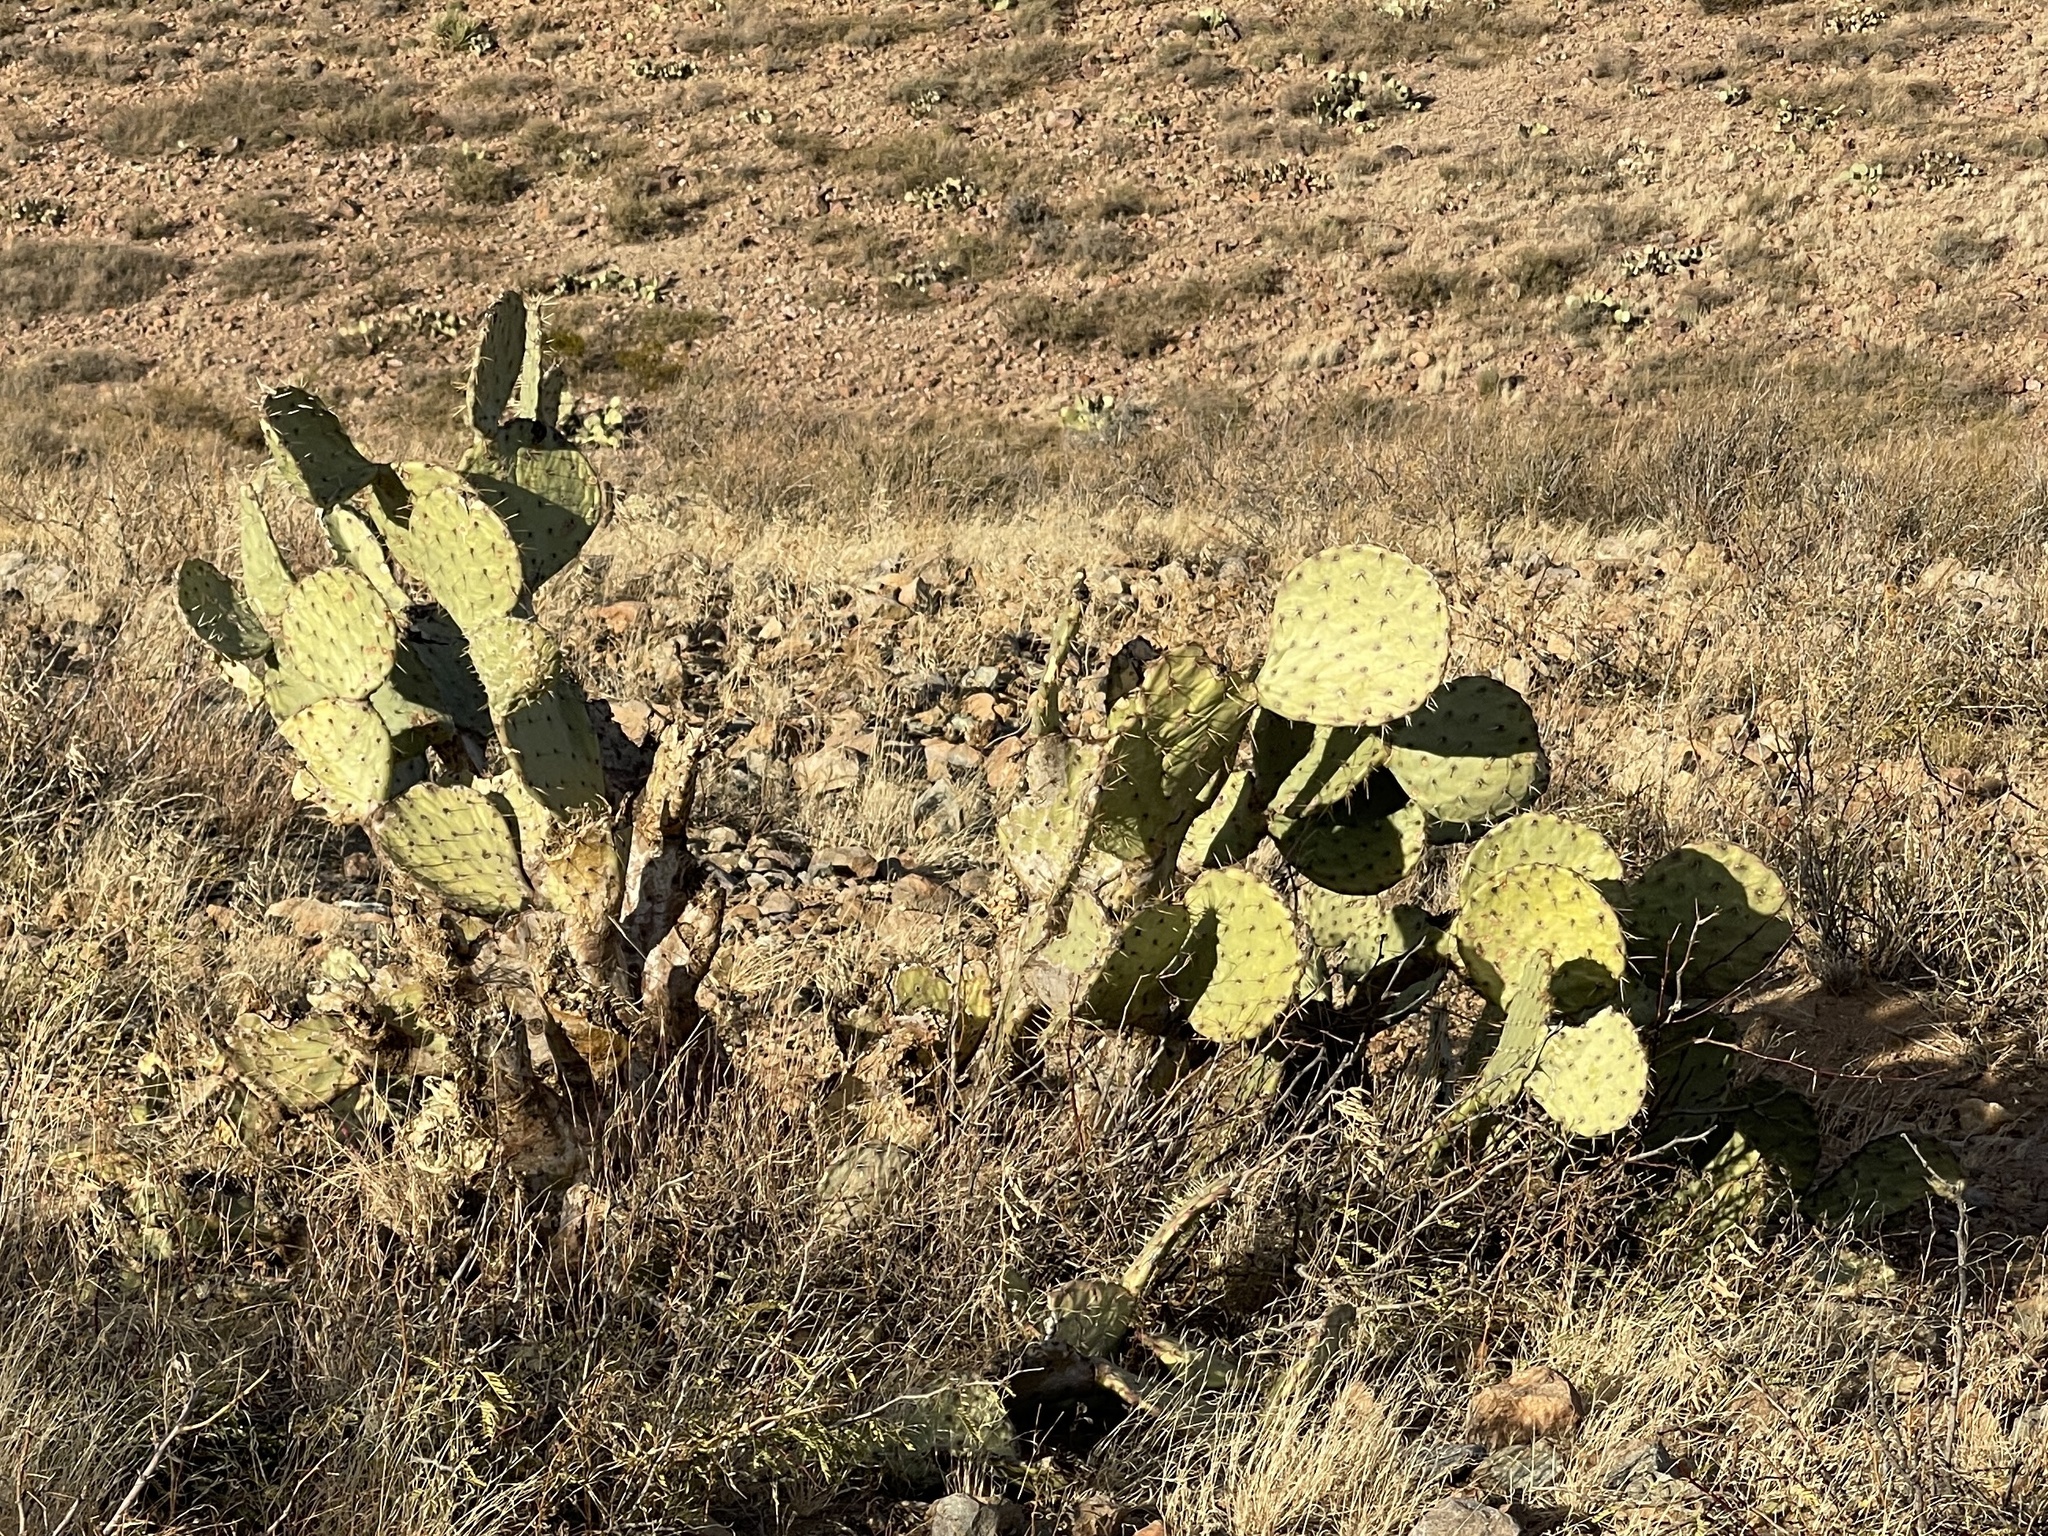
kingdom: Plantae
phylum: Tracheophyta
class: Magnoliopsida
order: Caryophyllales
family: Cactaceae
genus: Opuntia
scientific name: Opuntia engelmannii
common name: Cactus-apple
